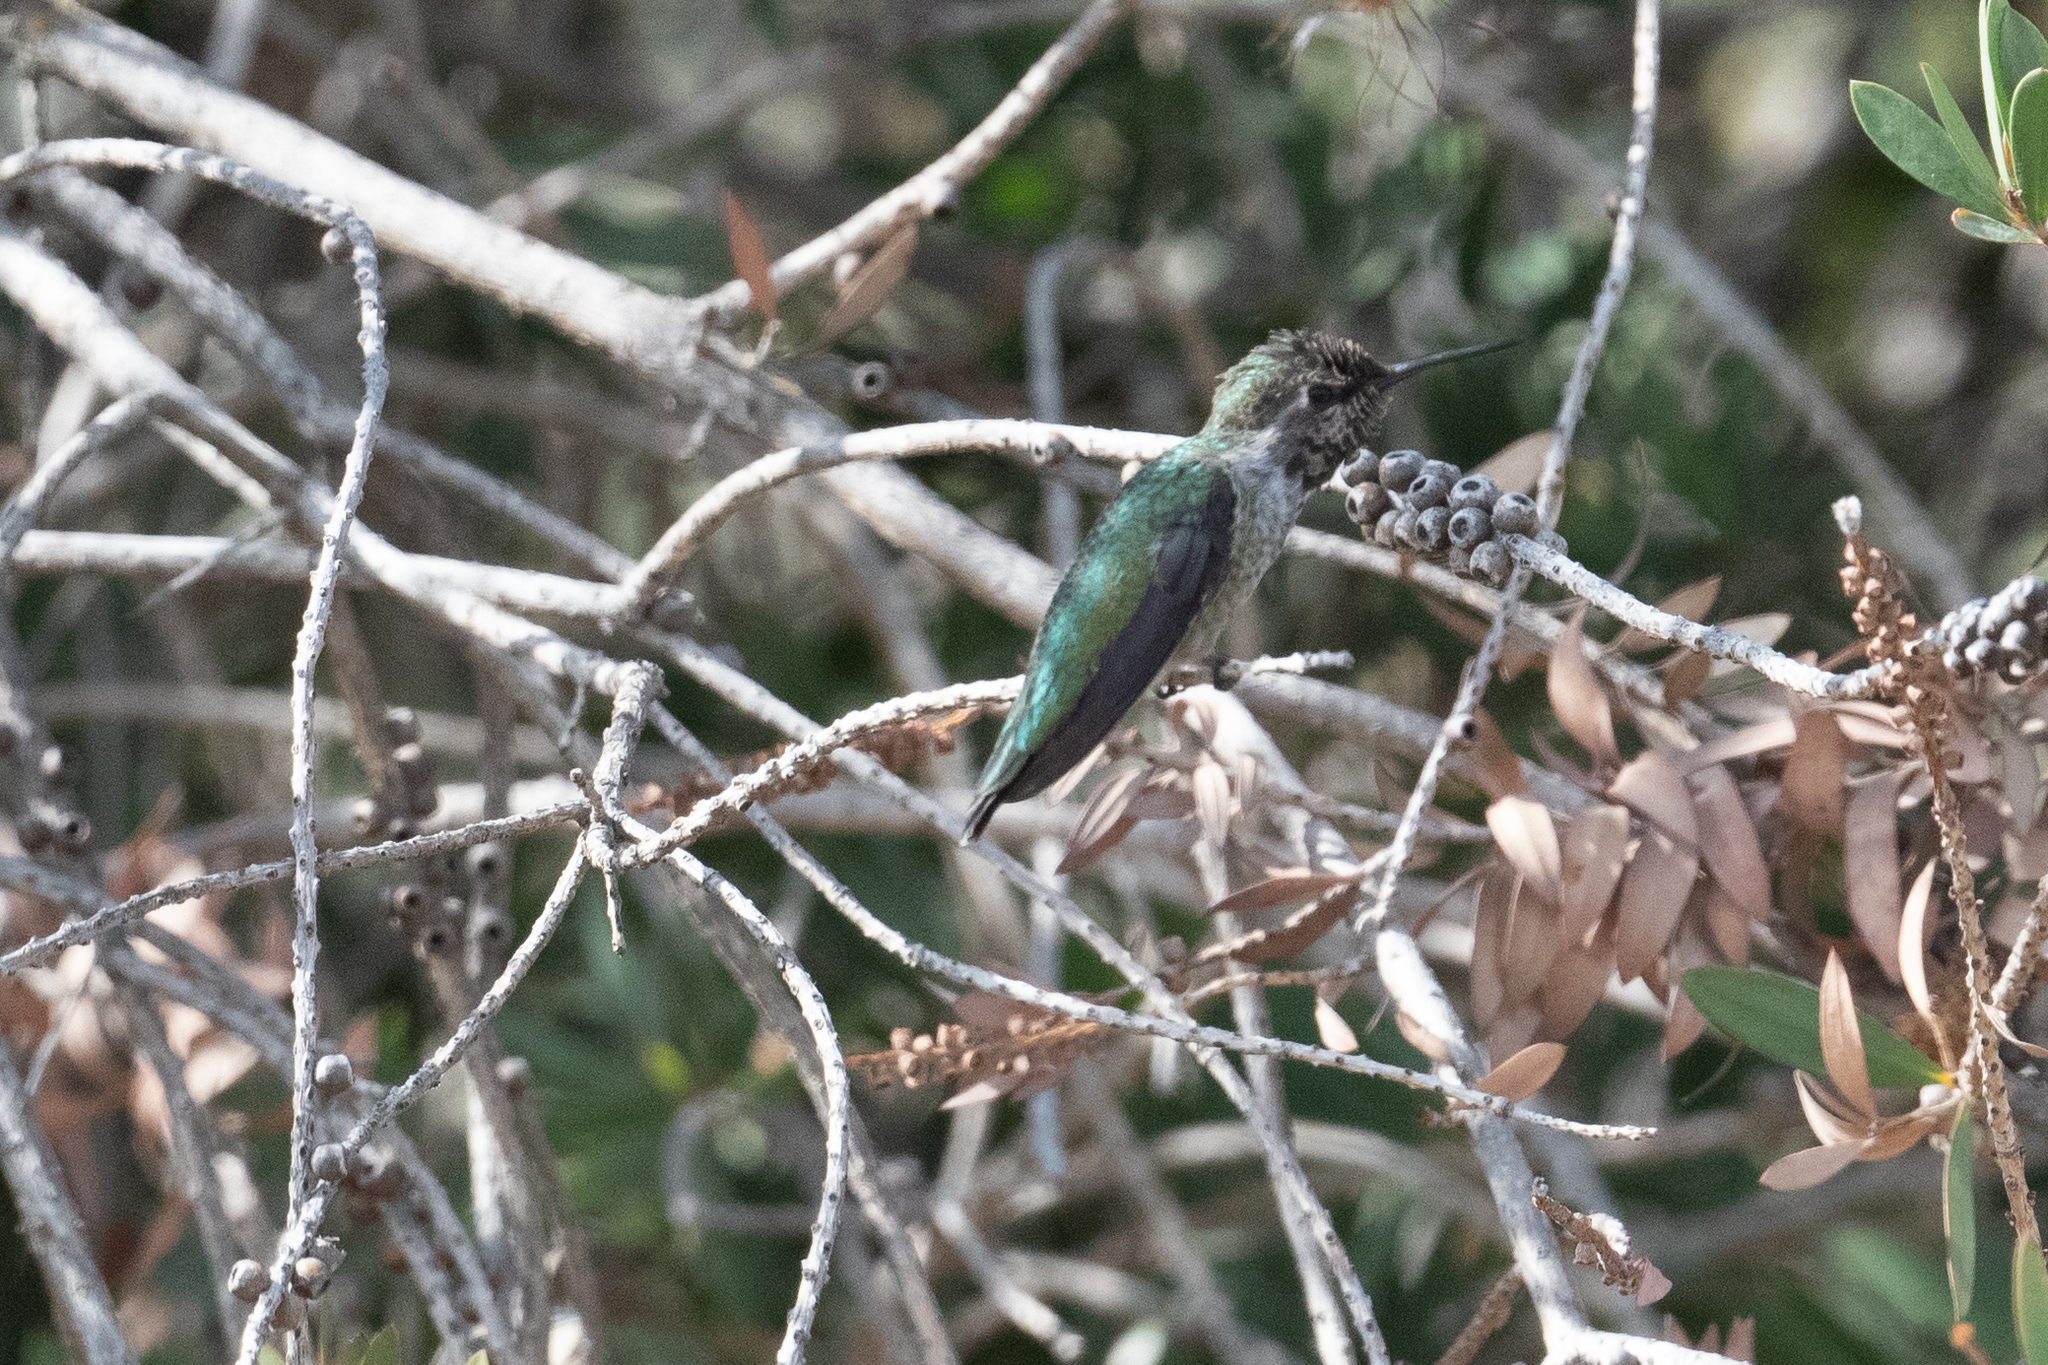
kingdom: Animalia
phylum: Chordata
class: Aves
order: Apodiformes
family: Trochilidae
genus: Calypte
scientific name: Calypte anna
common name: Anna's hummingbird
